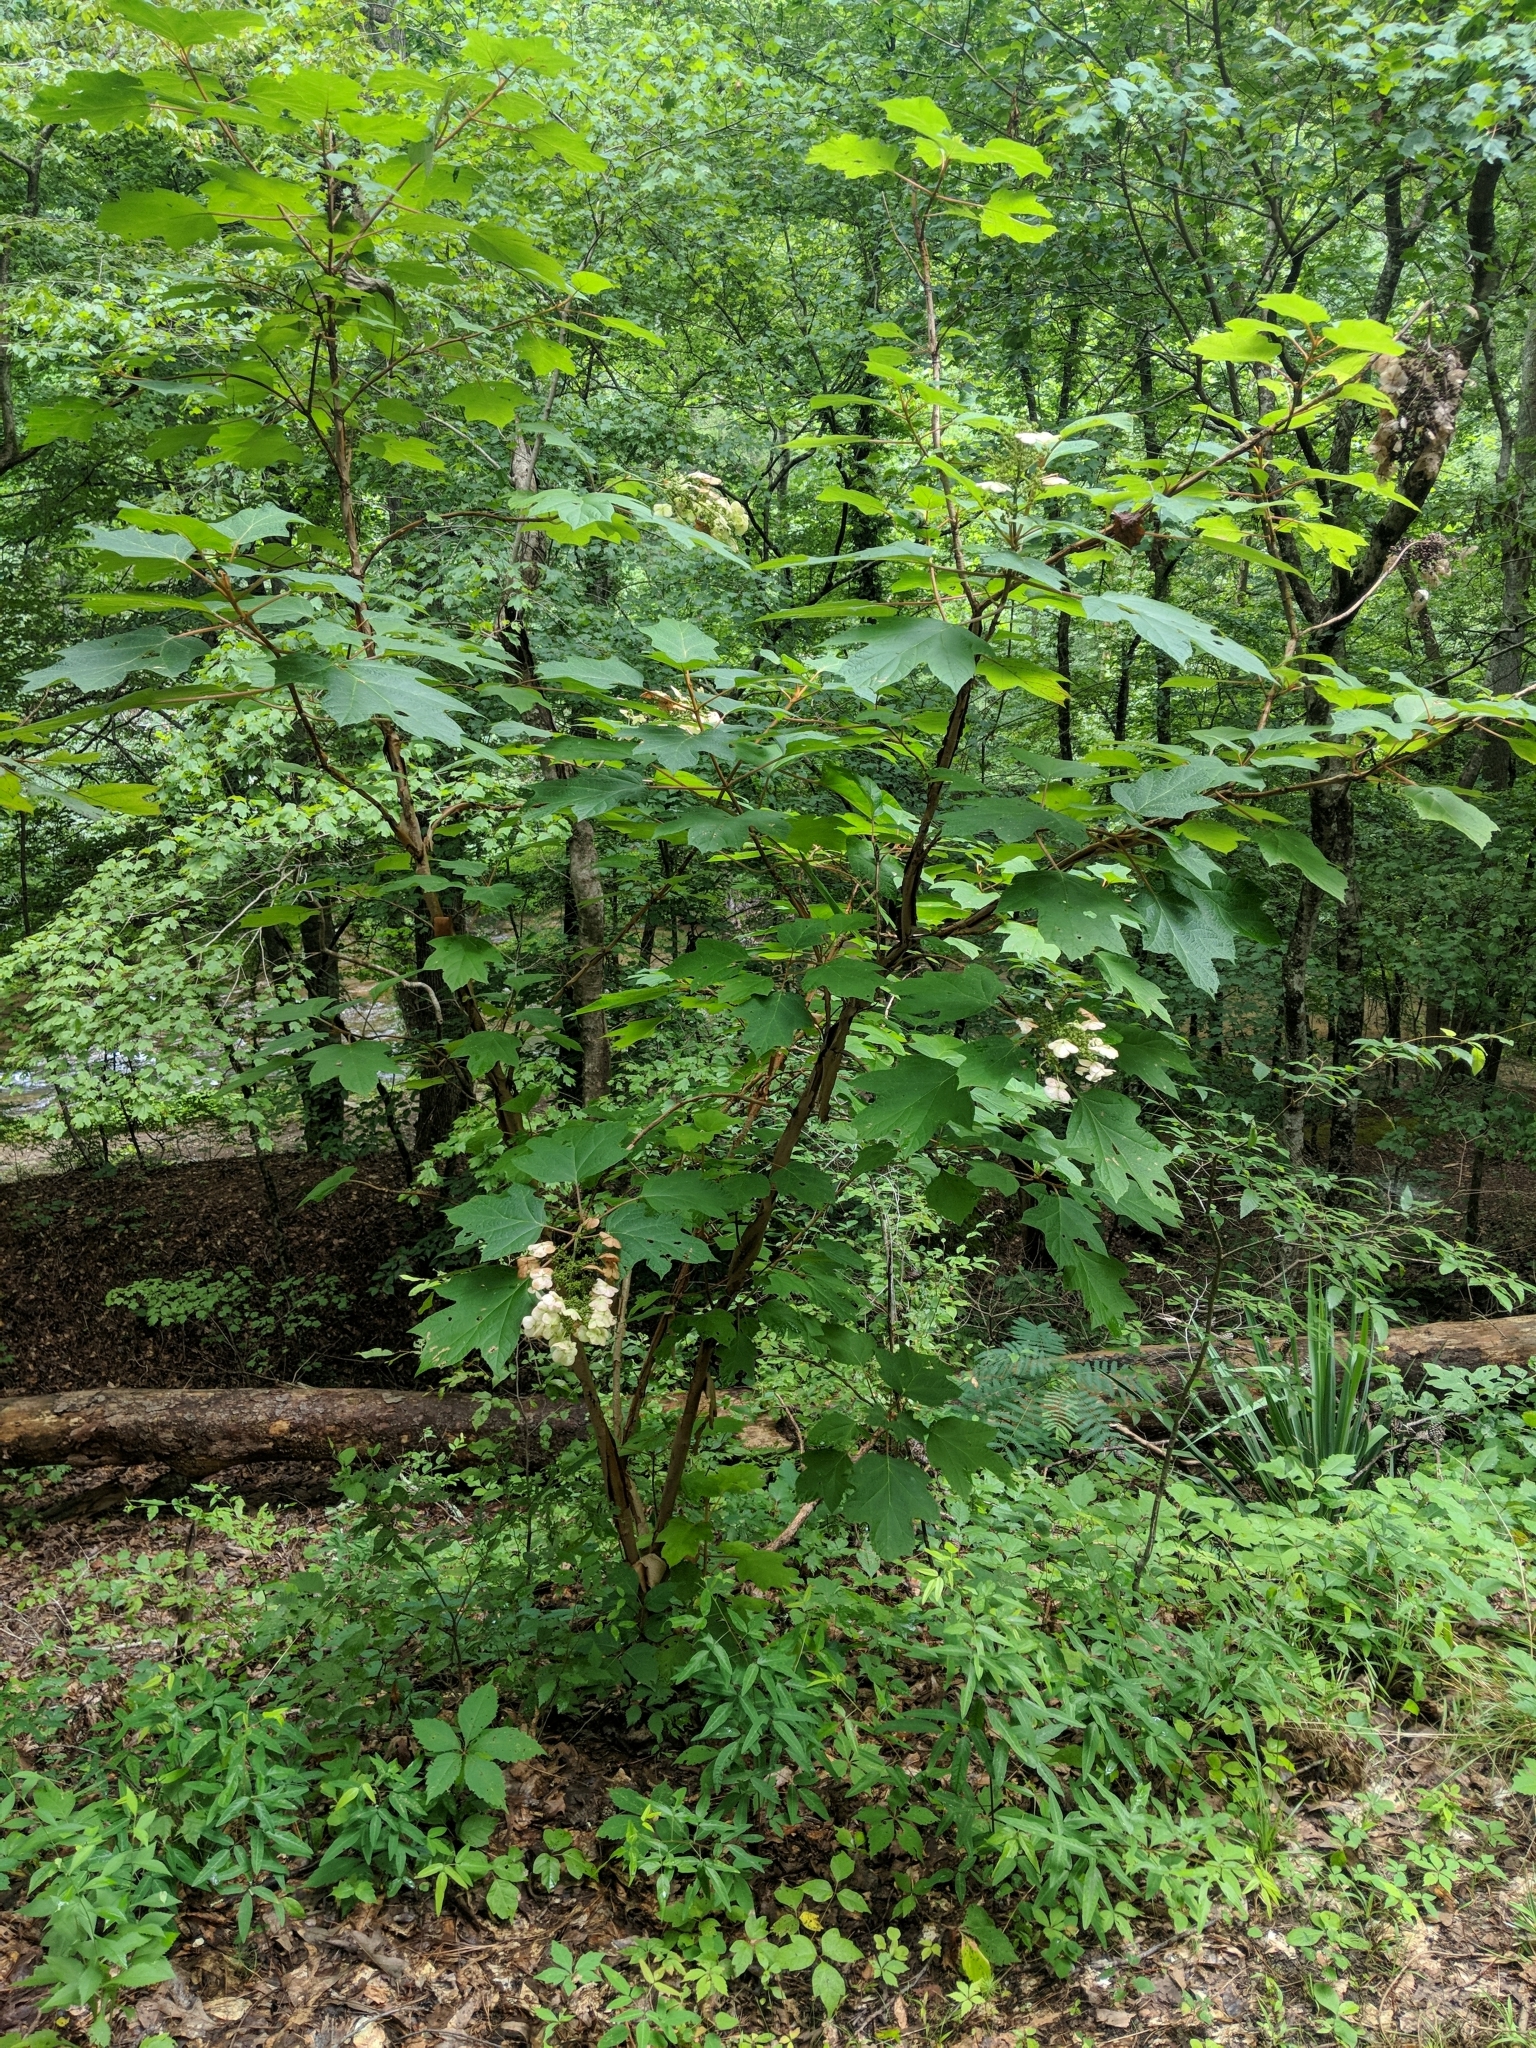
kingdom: Plantae
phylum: Tracheophyta
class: Magnoliopsida
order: Cornales
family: Hydrangeaceae
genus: Hydrangea
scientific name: Hydrangea quercifolia
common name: Oak-leaf hydrangea
